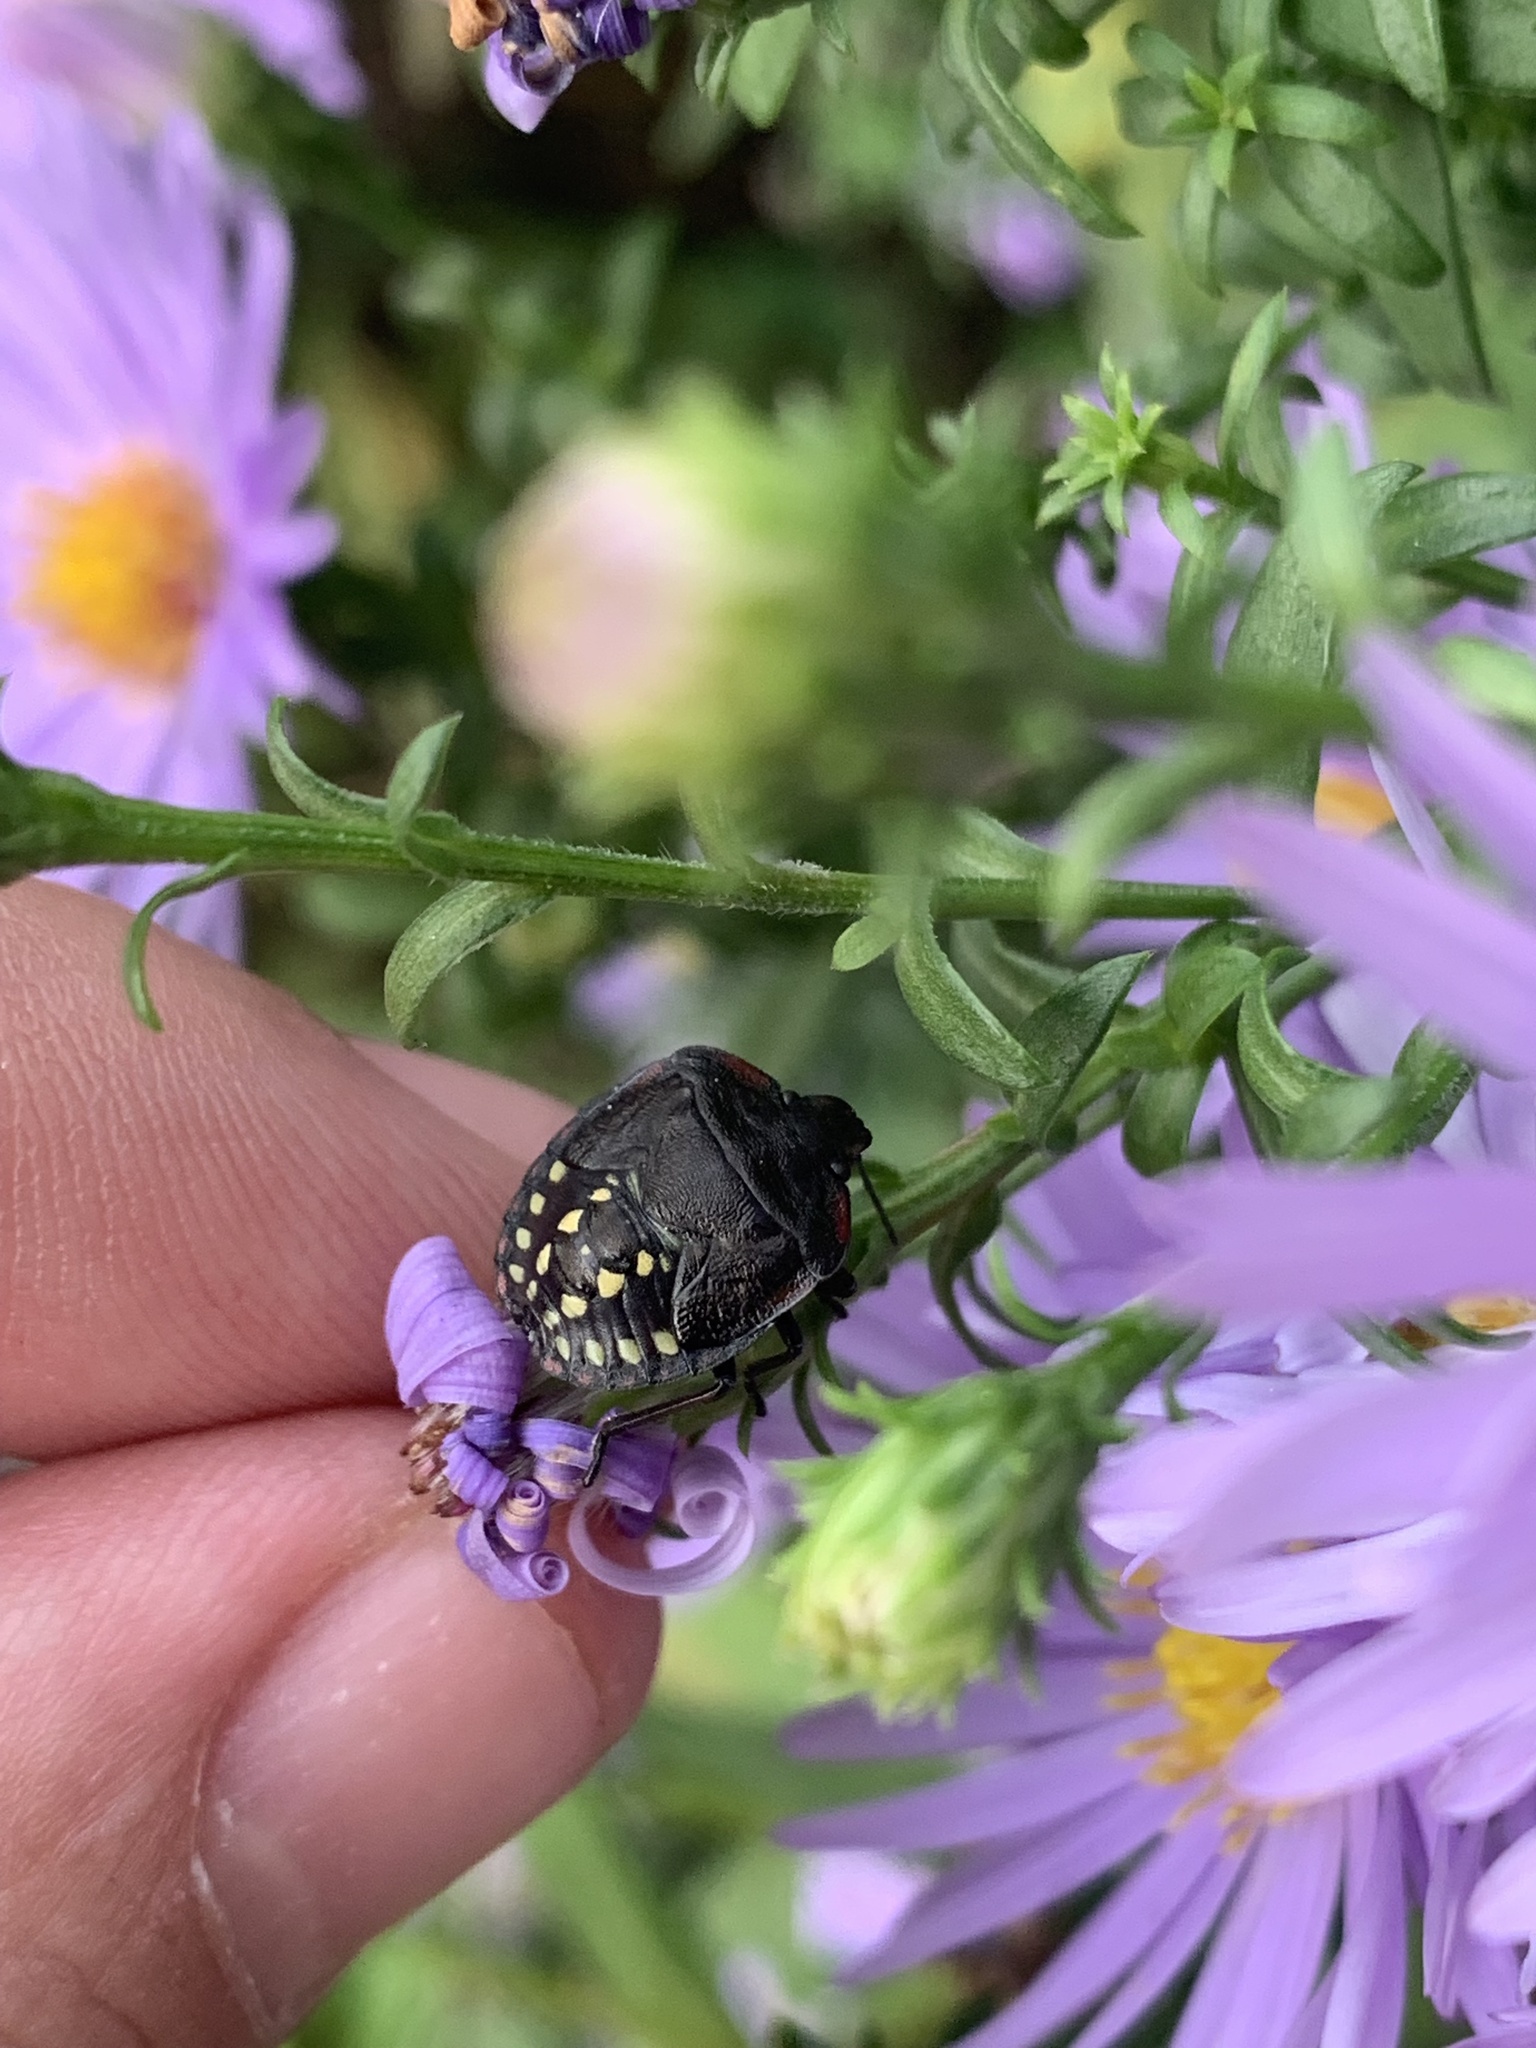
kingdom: Animalia
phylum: Arthropoda
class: Insecta
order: Hemiptera
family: Pentatomidae
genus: Nezara
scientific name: Nezara viridula
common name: Southern green stink bug
